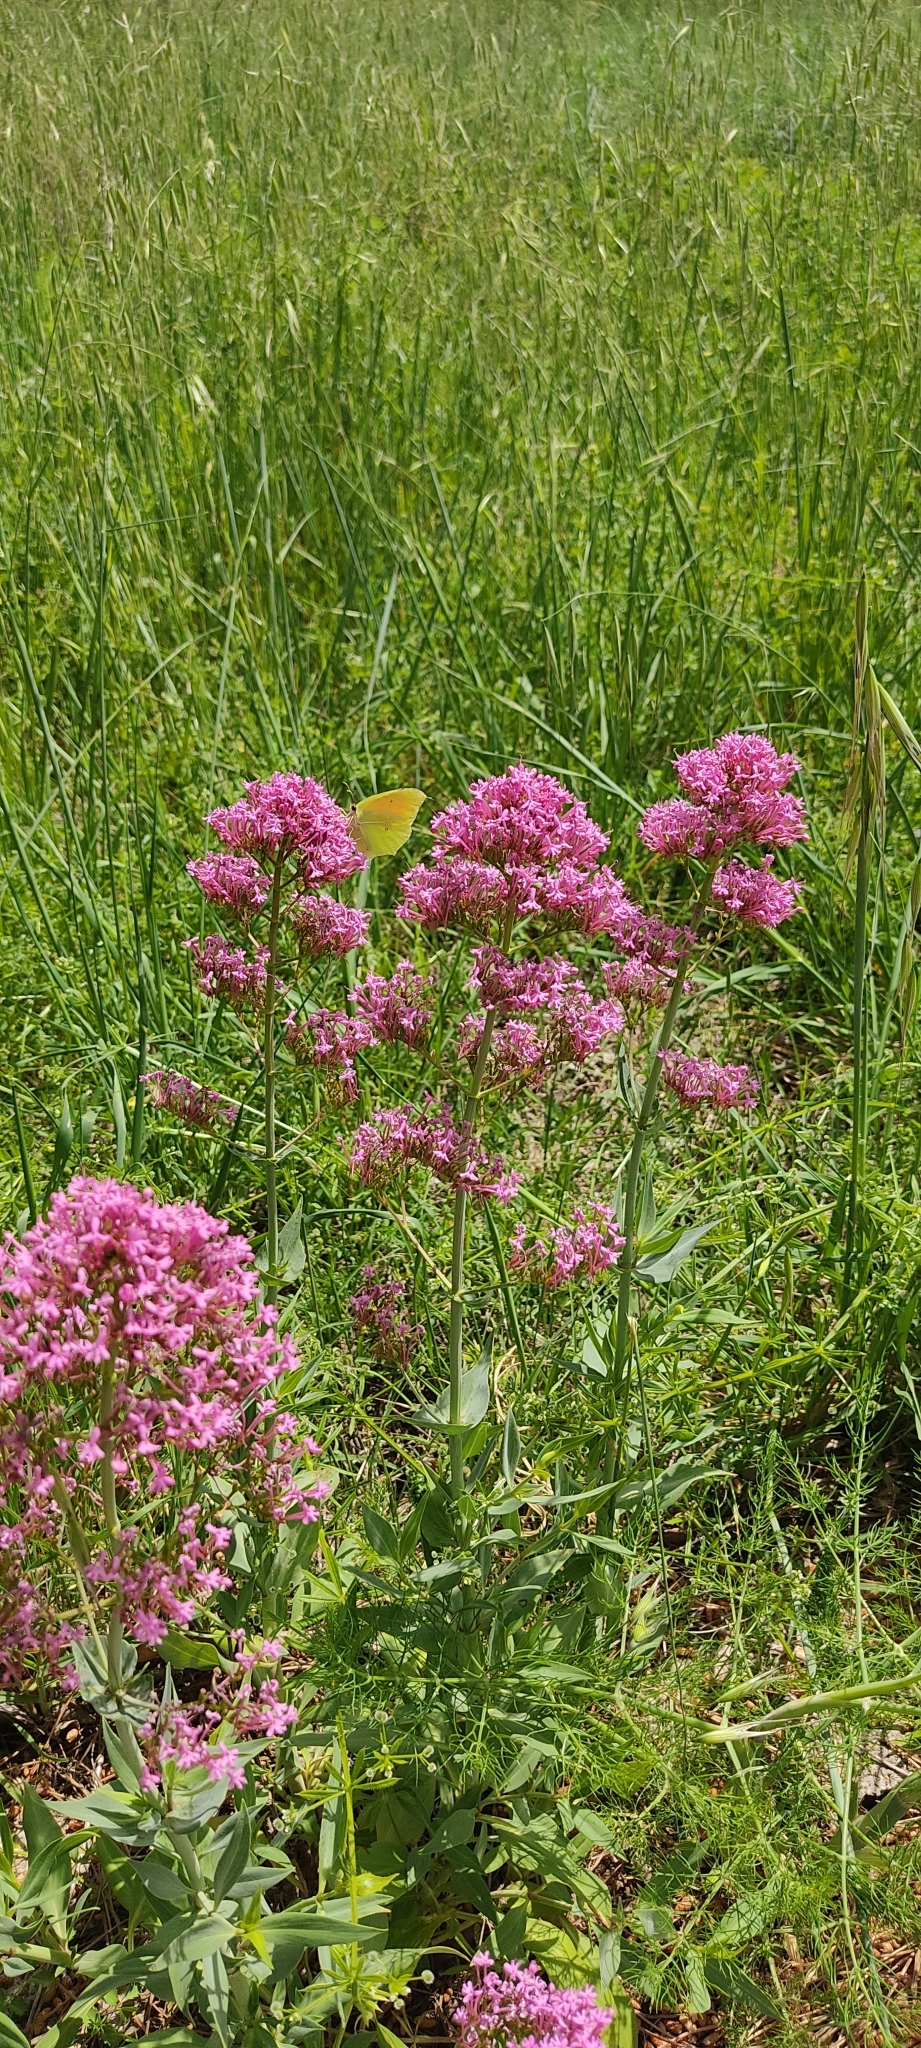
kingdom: Animalia
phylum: Arthropoda
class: Insecta
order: Lepidoptera
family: Pieridae
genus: Gonepteryx
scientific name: Gonepteryx cleopatra
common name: Cleopatra
